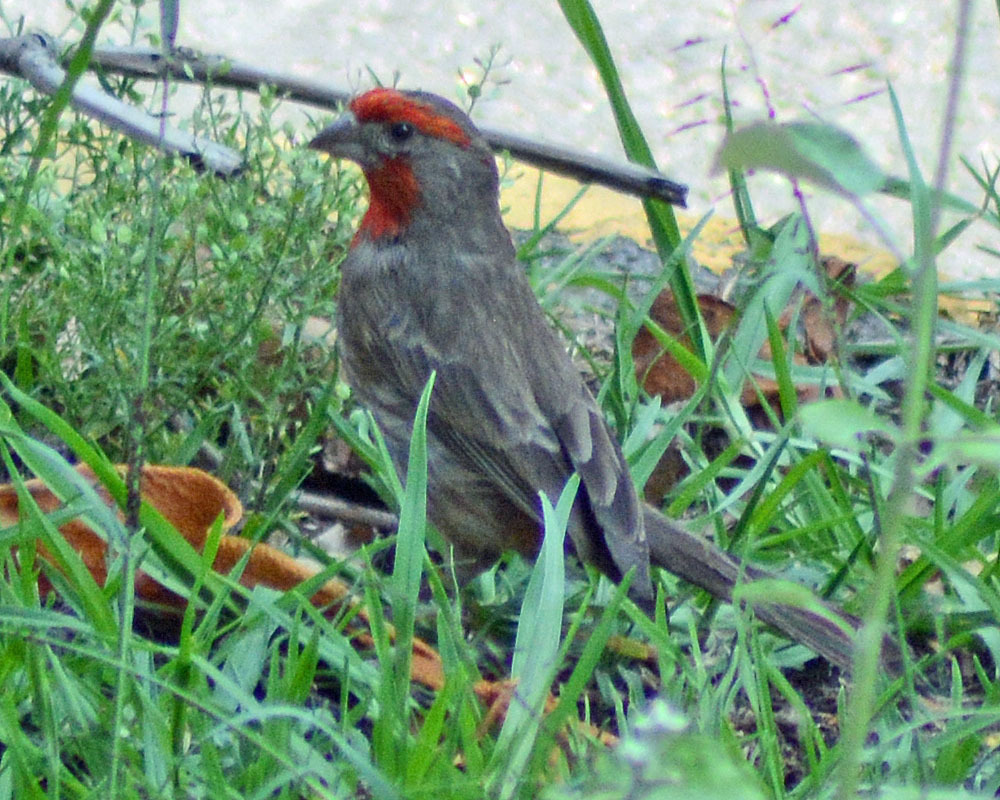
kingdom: Animalia
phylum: Chordata
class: Aves
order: Passeriformes
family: Fringillidae
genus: Haemorhous
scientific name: Haemorhous mexicanus
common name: House finch
